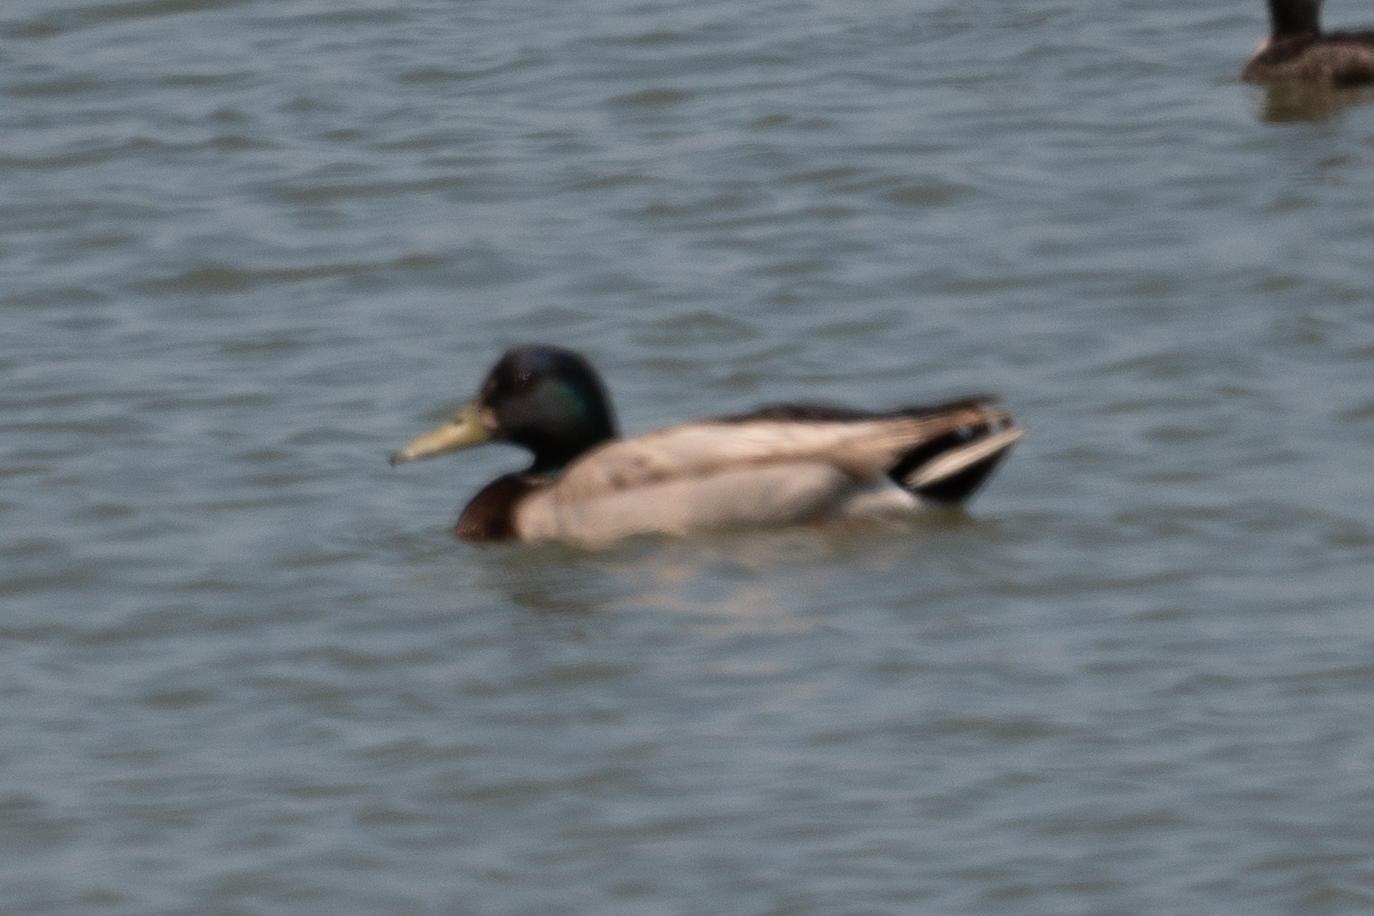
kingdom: Animalia
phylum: Chordata
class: Aves
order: Anseriformes
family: Anatidae
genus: Anas
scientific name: Anas platyrhynchos
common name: Mallard
